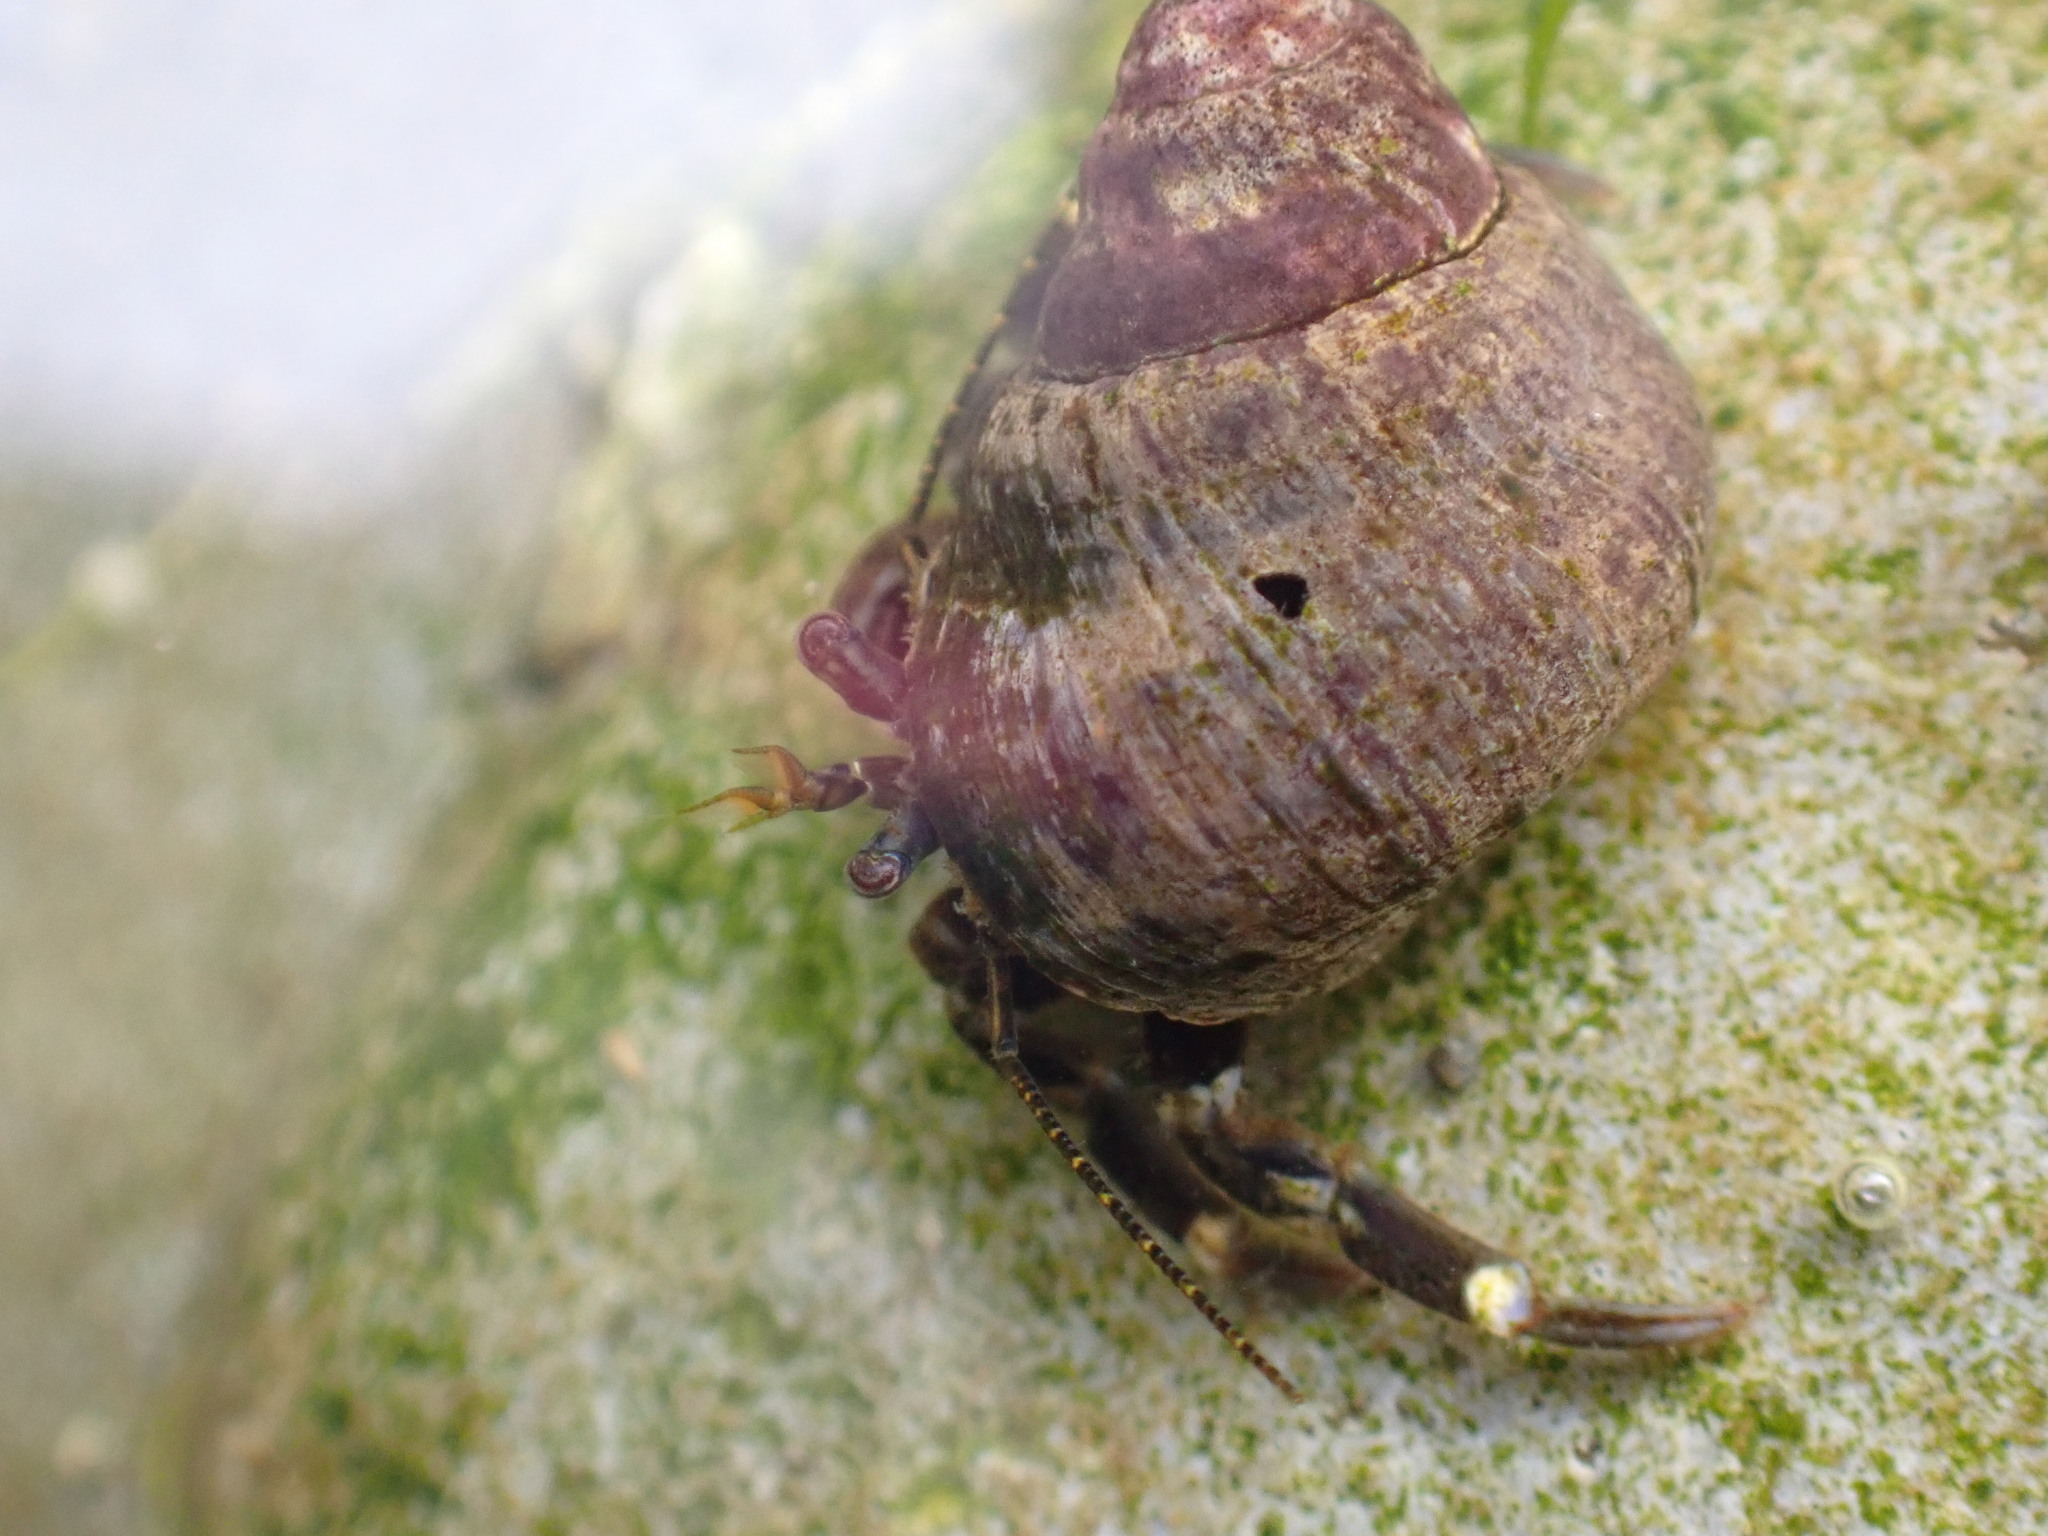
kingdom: Animalia
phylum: Arthropoda
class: Malacostraca
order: Decapoda
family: Paguridae
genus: Pagurus
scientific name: Pagurus hirsutiusculus
